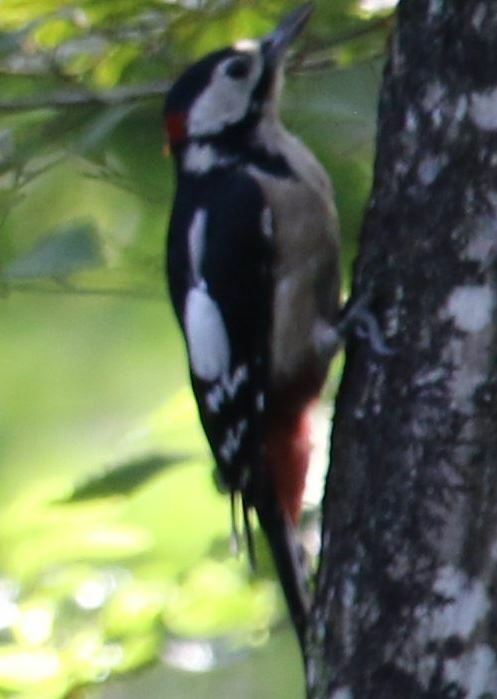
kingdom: Animalia
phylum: Chordata
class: Aves
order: Piciformes
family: Picidae
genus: Dendrocopos
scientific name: Dendrocopos major
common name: Great spotted woodpecker
